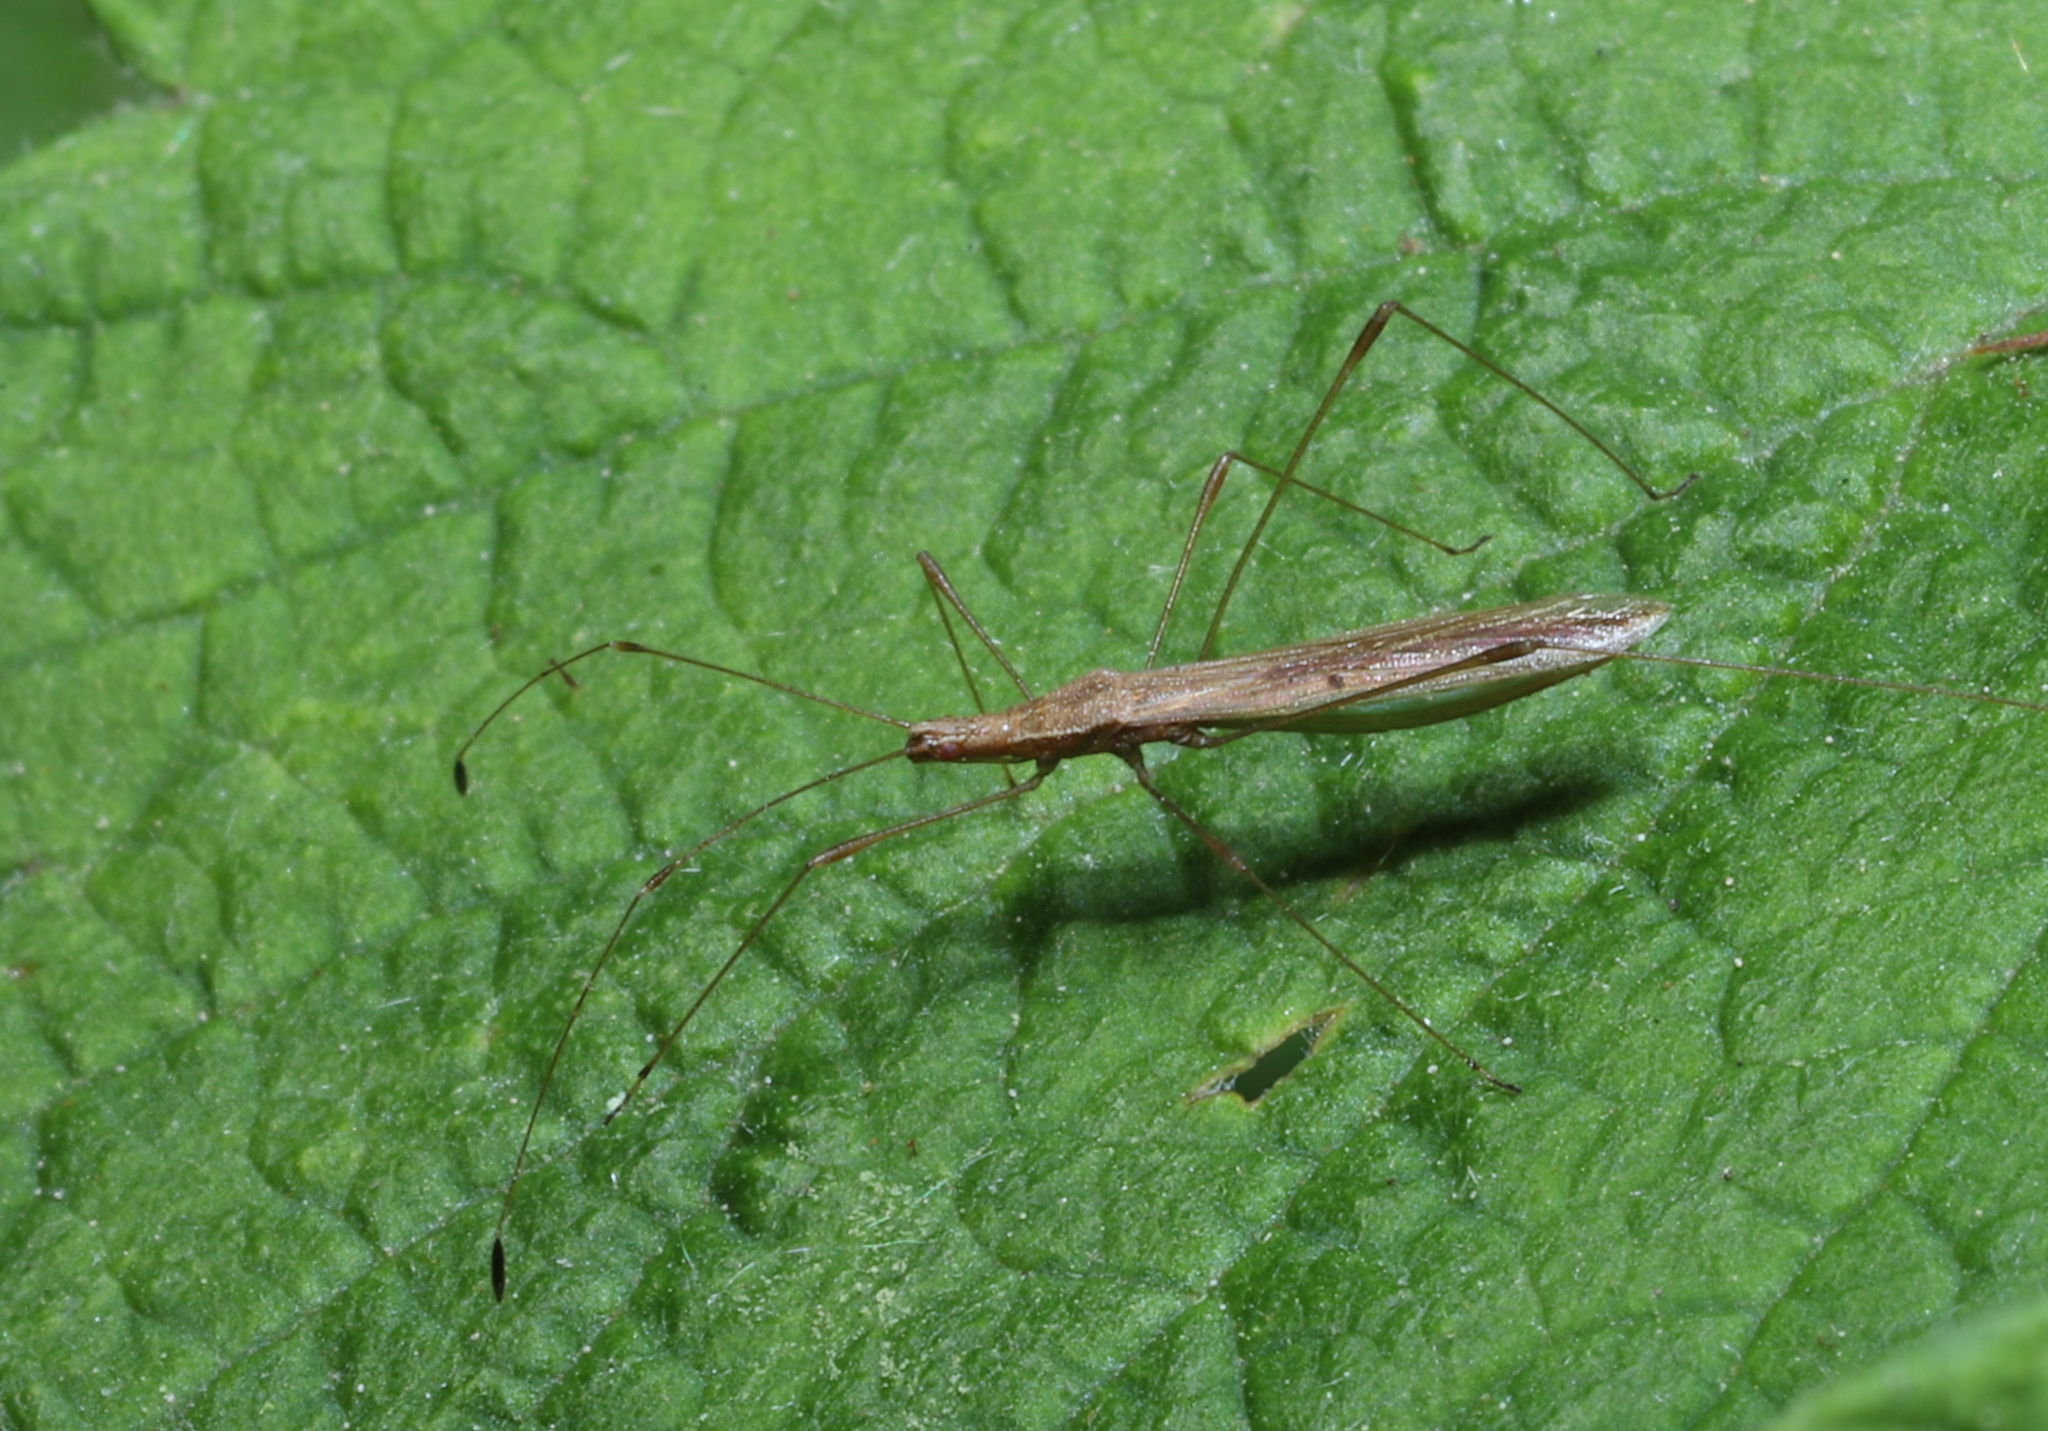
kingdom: Animalia
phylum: Arthropoda
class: Insecta
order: Hemiptera
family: Berytidae
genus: Neoneides
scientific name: Neoneides muticus
